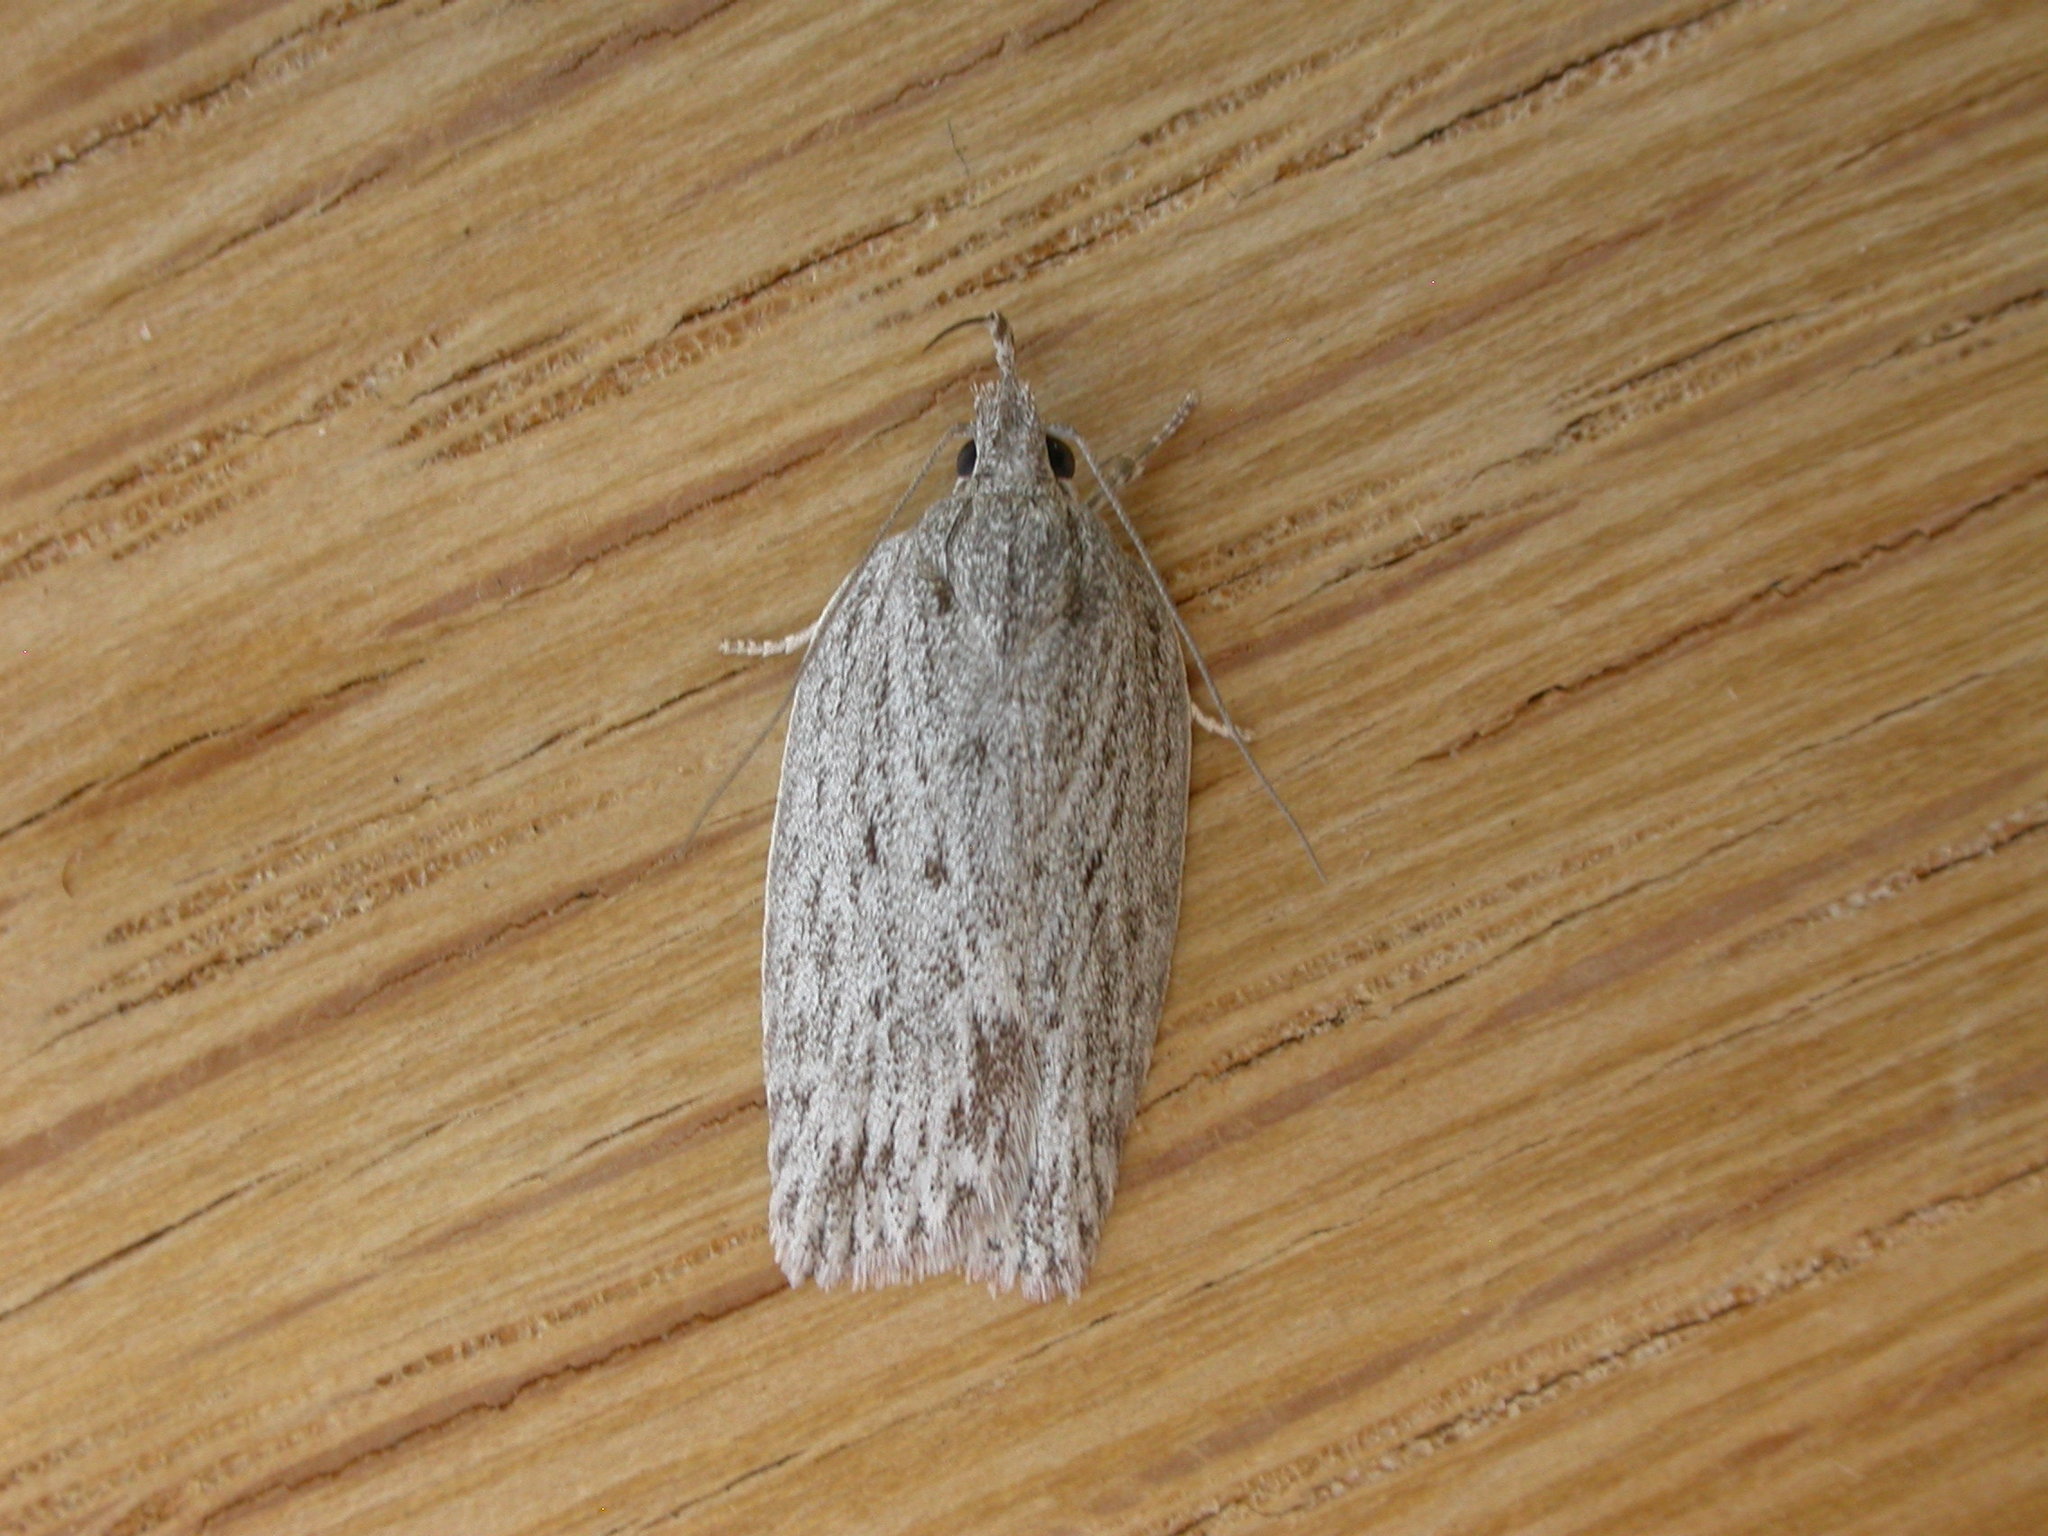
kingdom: Animalia
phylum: Arthropoda
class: Insecta
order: Lepidoptera
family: Depressariidae
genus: Pedois
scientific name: Pedois lewinella
